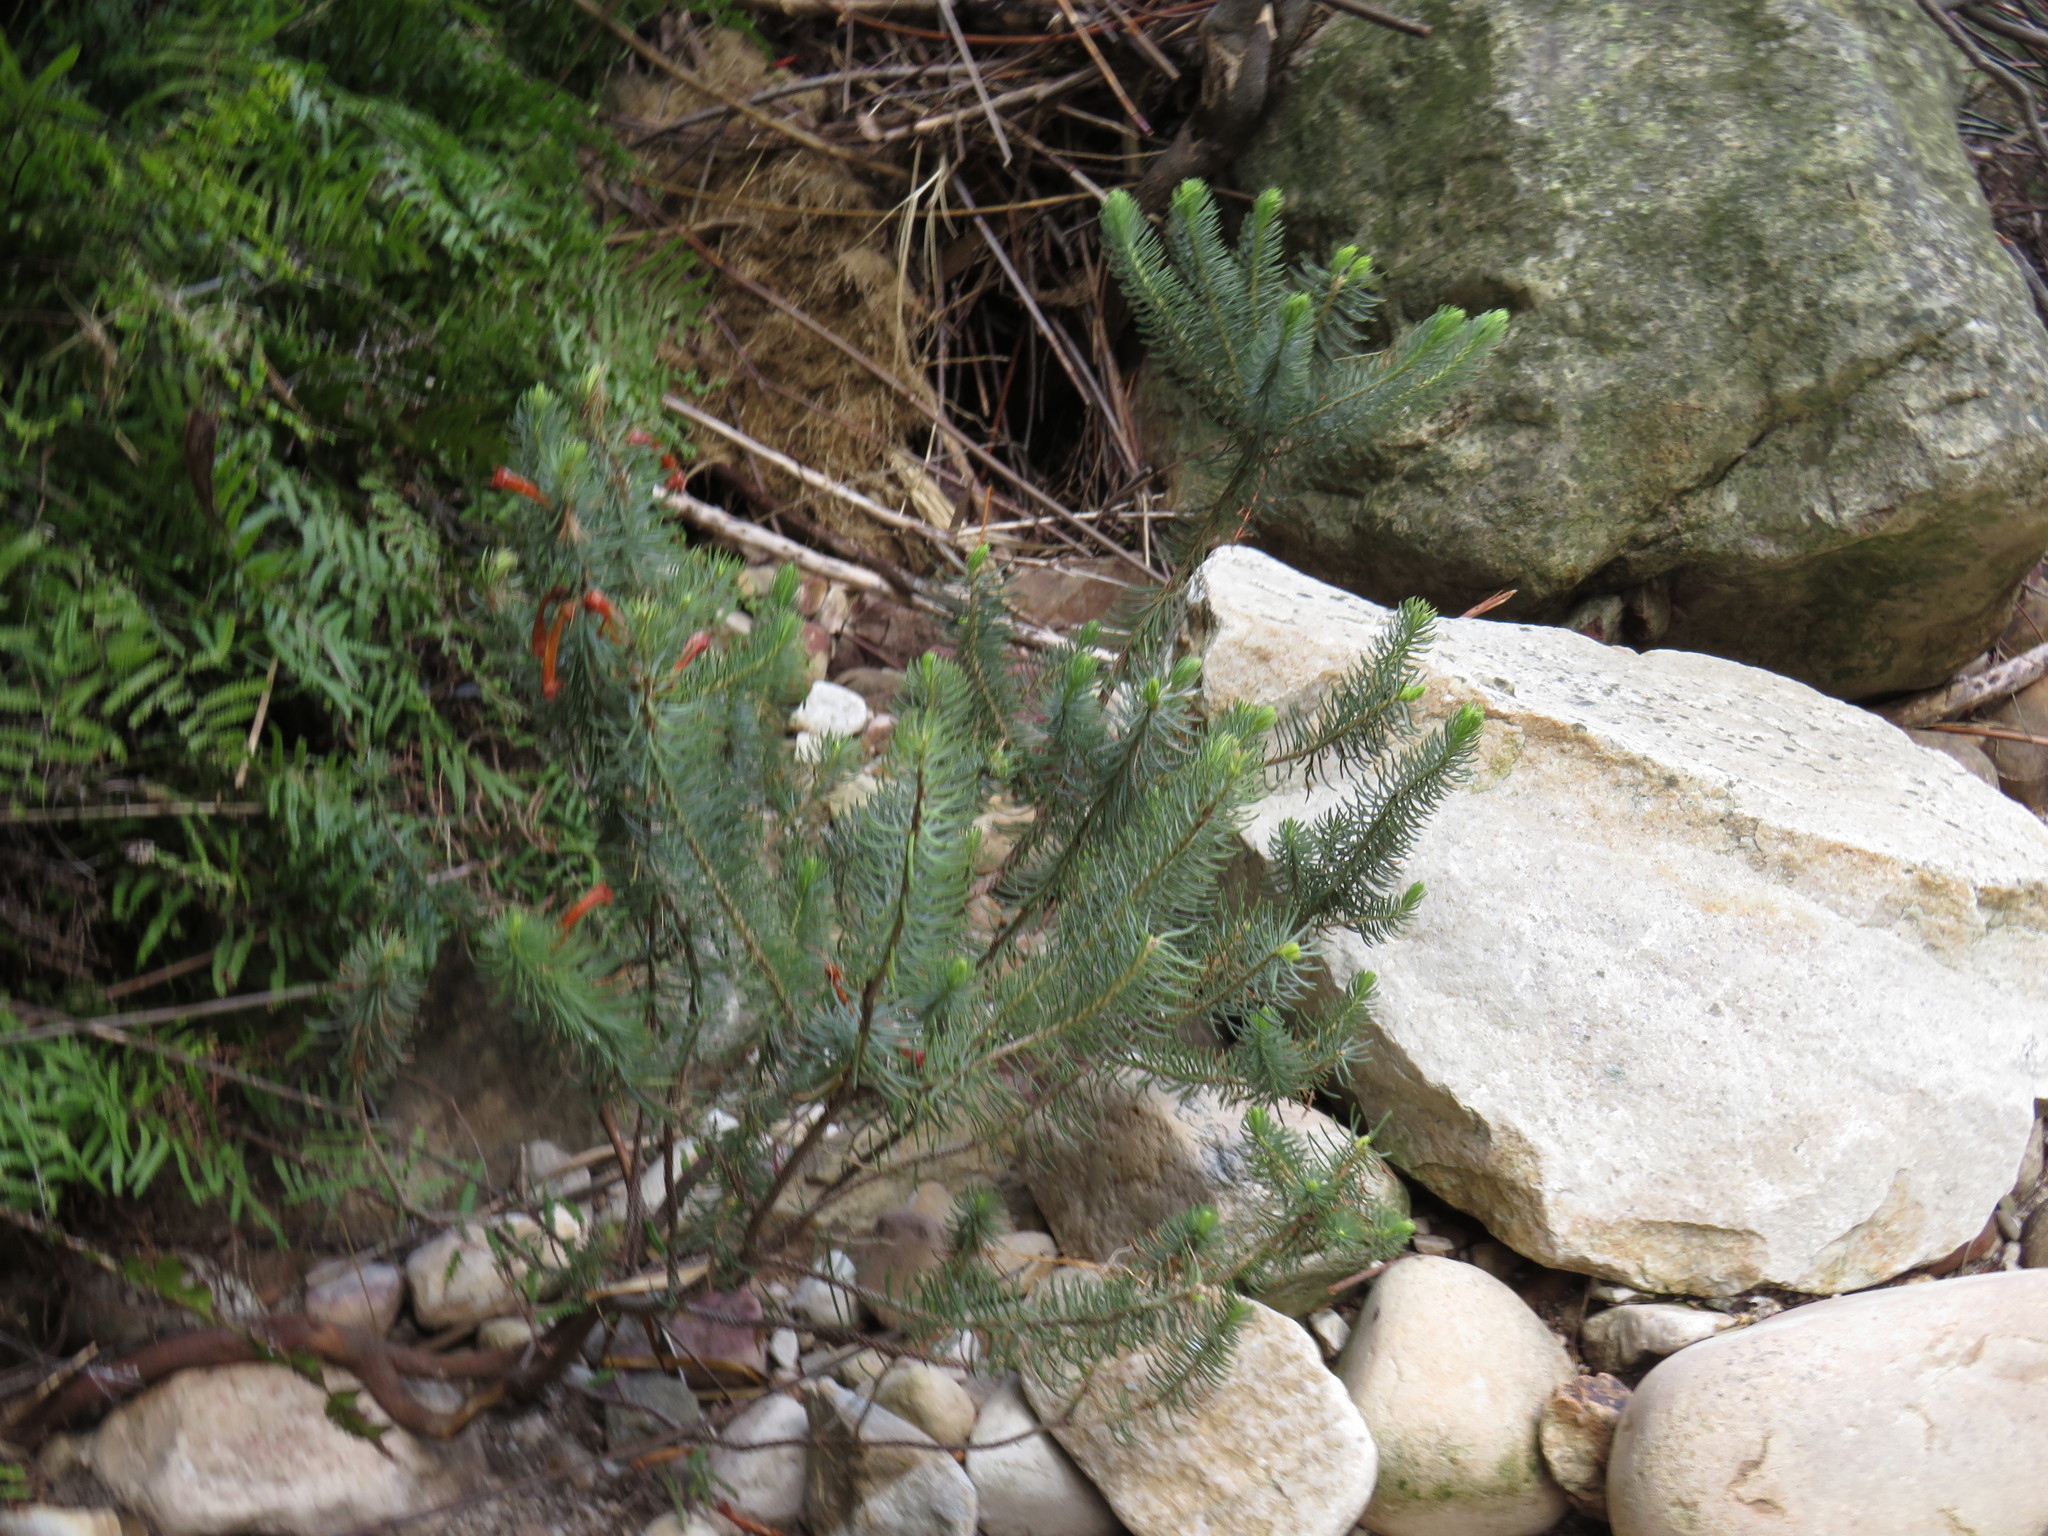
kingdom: Plantae
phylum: Tracheophyta
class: Magnoliopsida
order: Ericales
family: Ericaceae
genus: Erica
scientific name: Erica pinea
